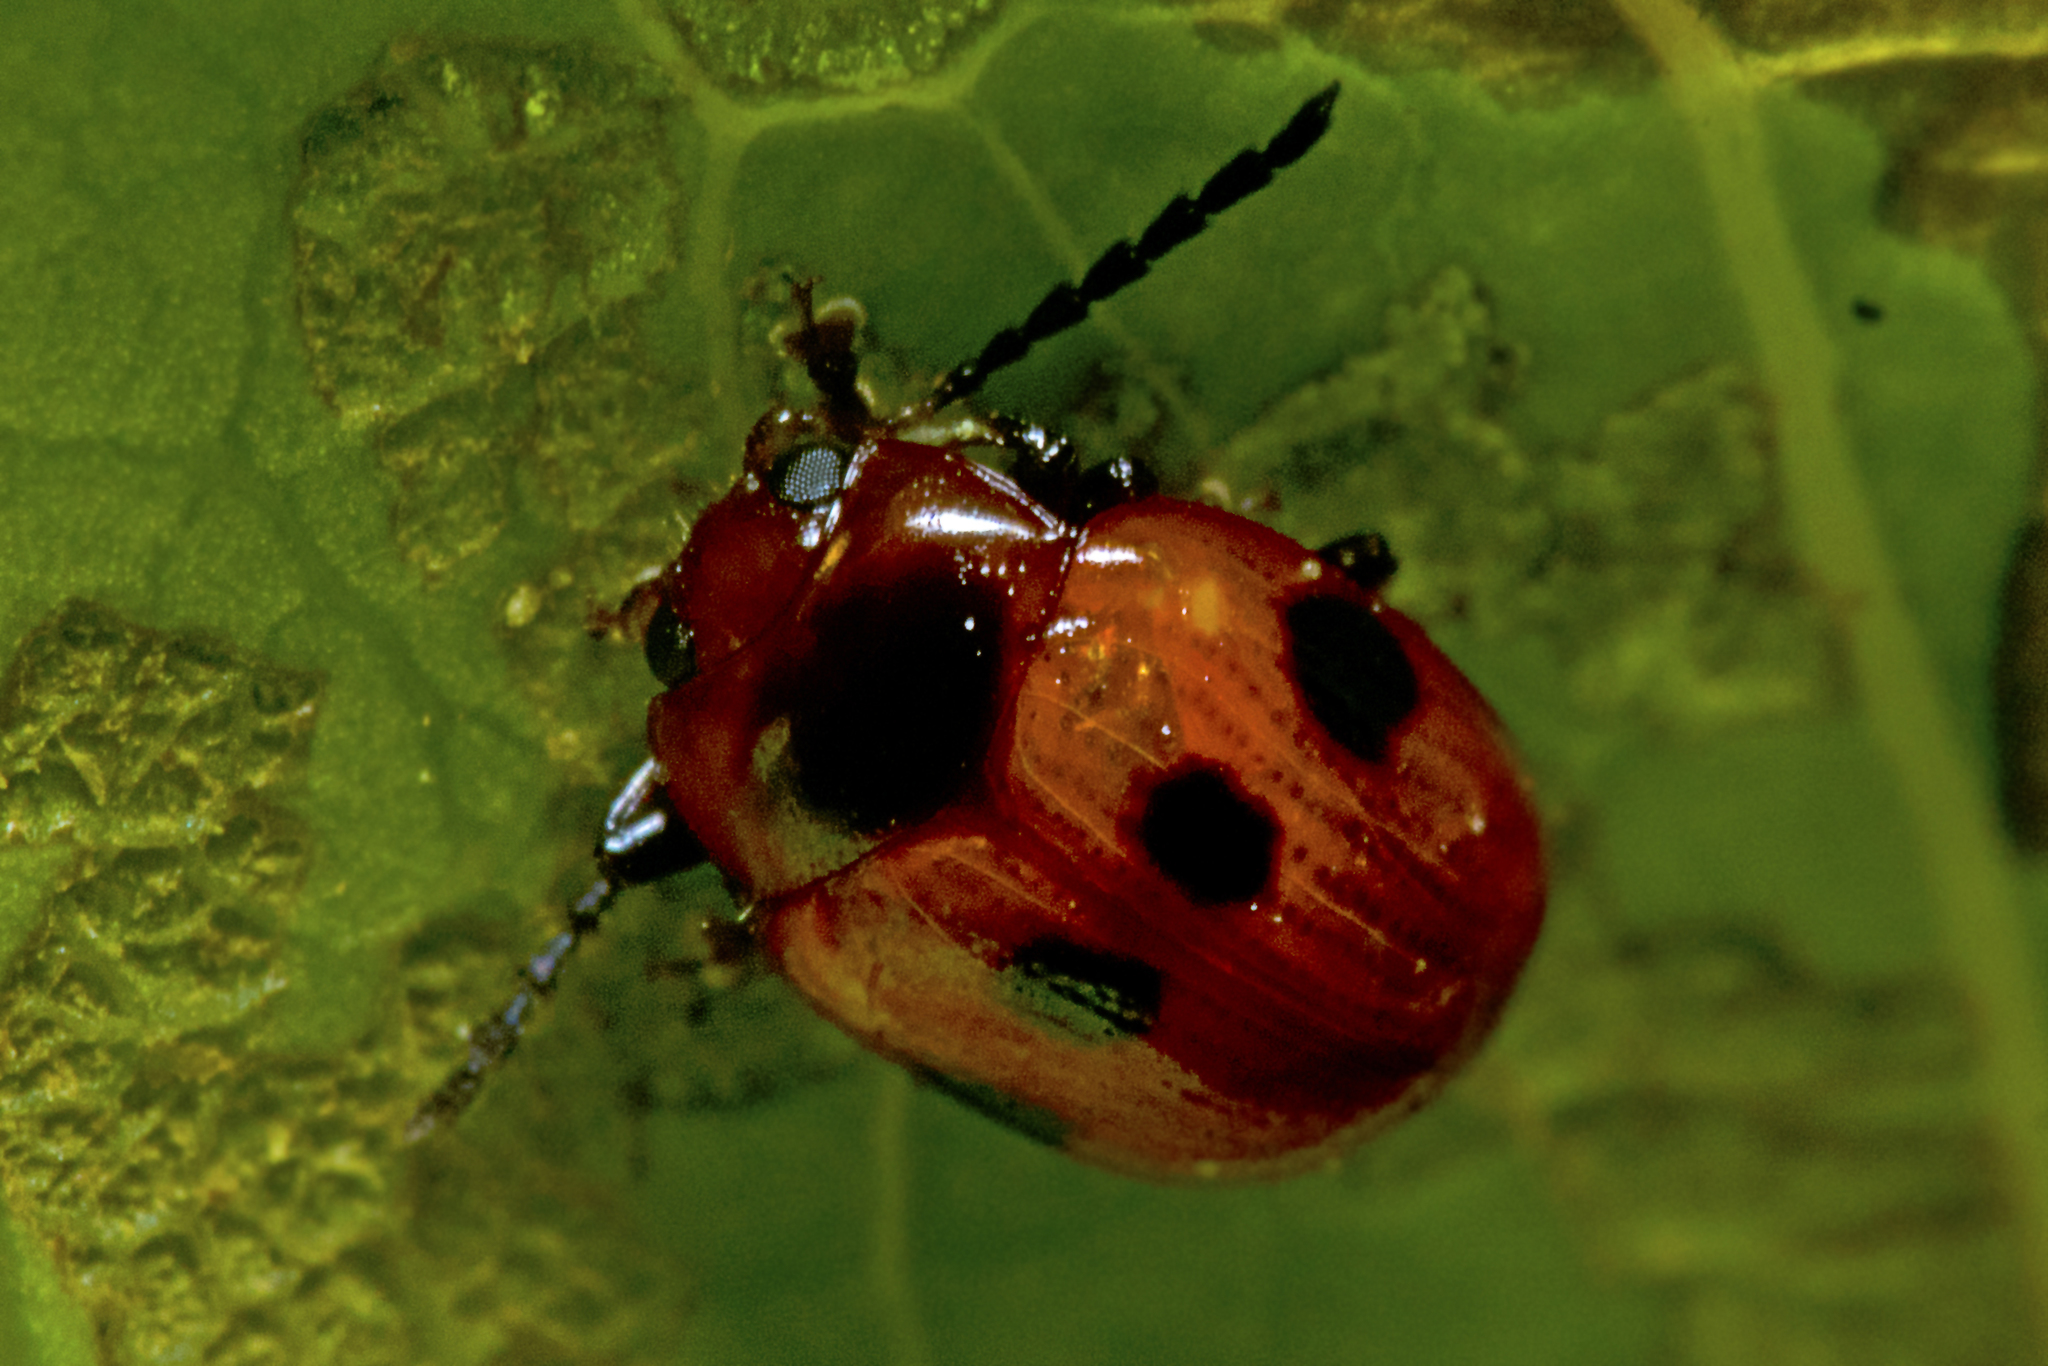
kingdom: Animalia
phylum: Arthropoda
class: Insecta
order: Coleoptera
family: Chrysomelidae
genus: Tinosis
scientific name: Tinosis
